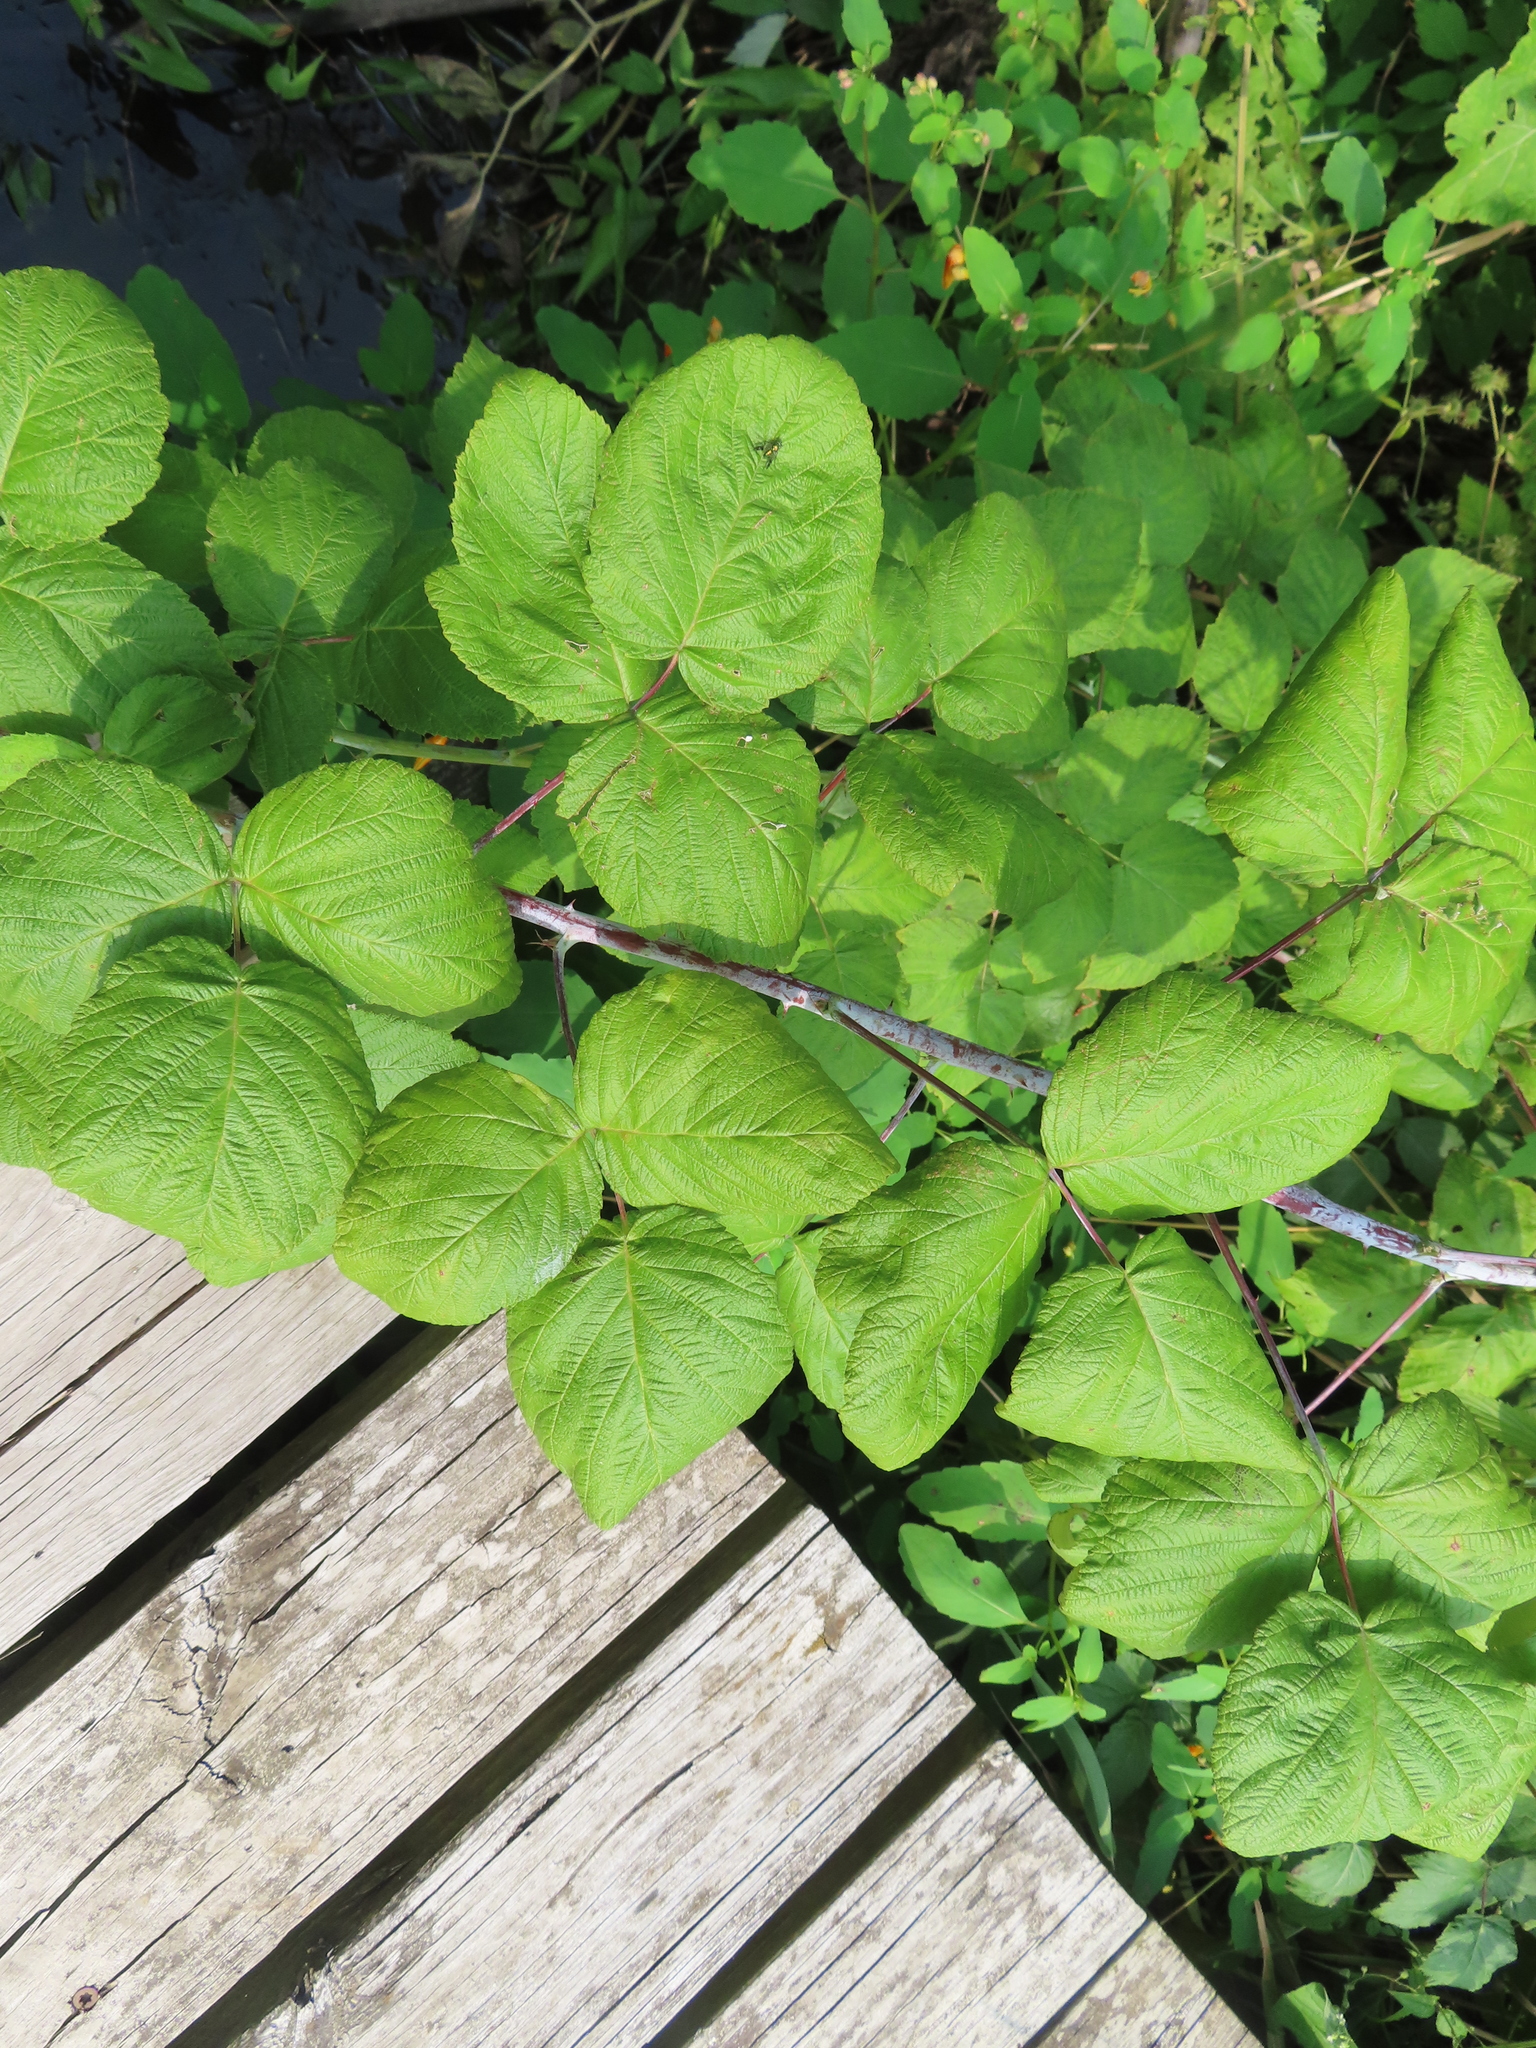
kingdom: Plantae
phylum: Tracheophyta
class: Magnoliopsida
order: Rosales
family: Rosaceae
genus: Rubus
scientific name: Rubus occidentalis
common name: Black raspberry
